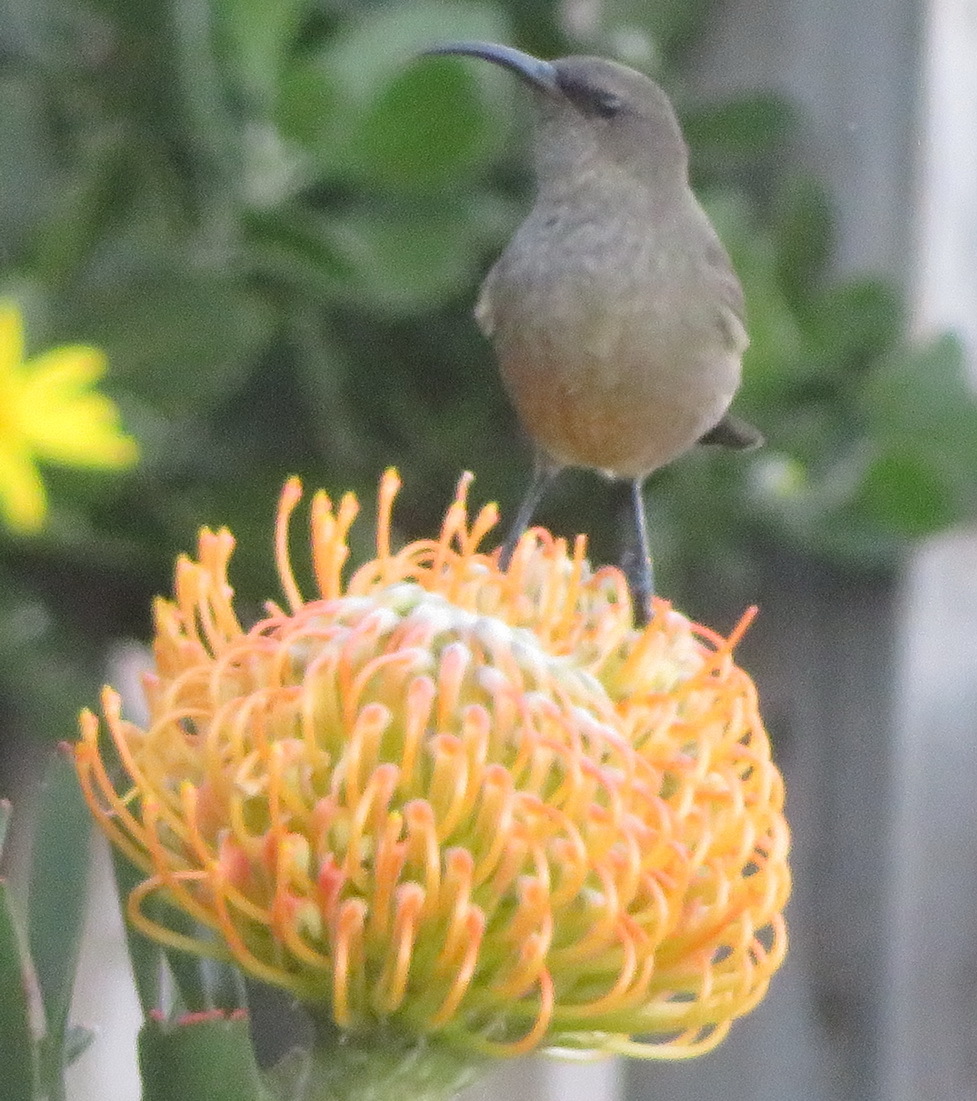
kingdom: Animalia
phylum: Chordata
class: Aves
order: Passeriformes
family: Nectariniidae
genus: Cinnyris
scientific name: Cinnyris afer
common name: Greater double-collared sunbird
